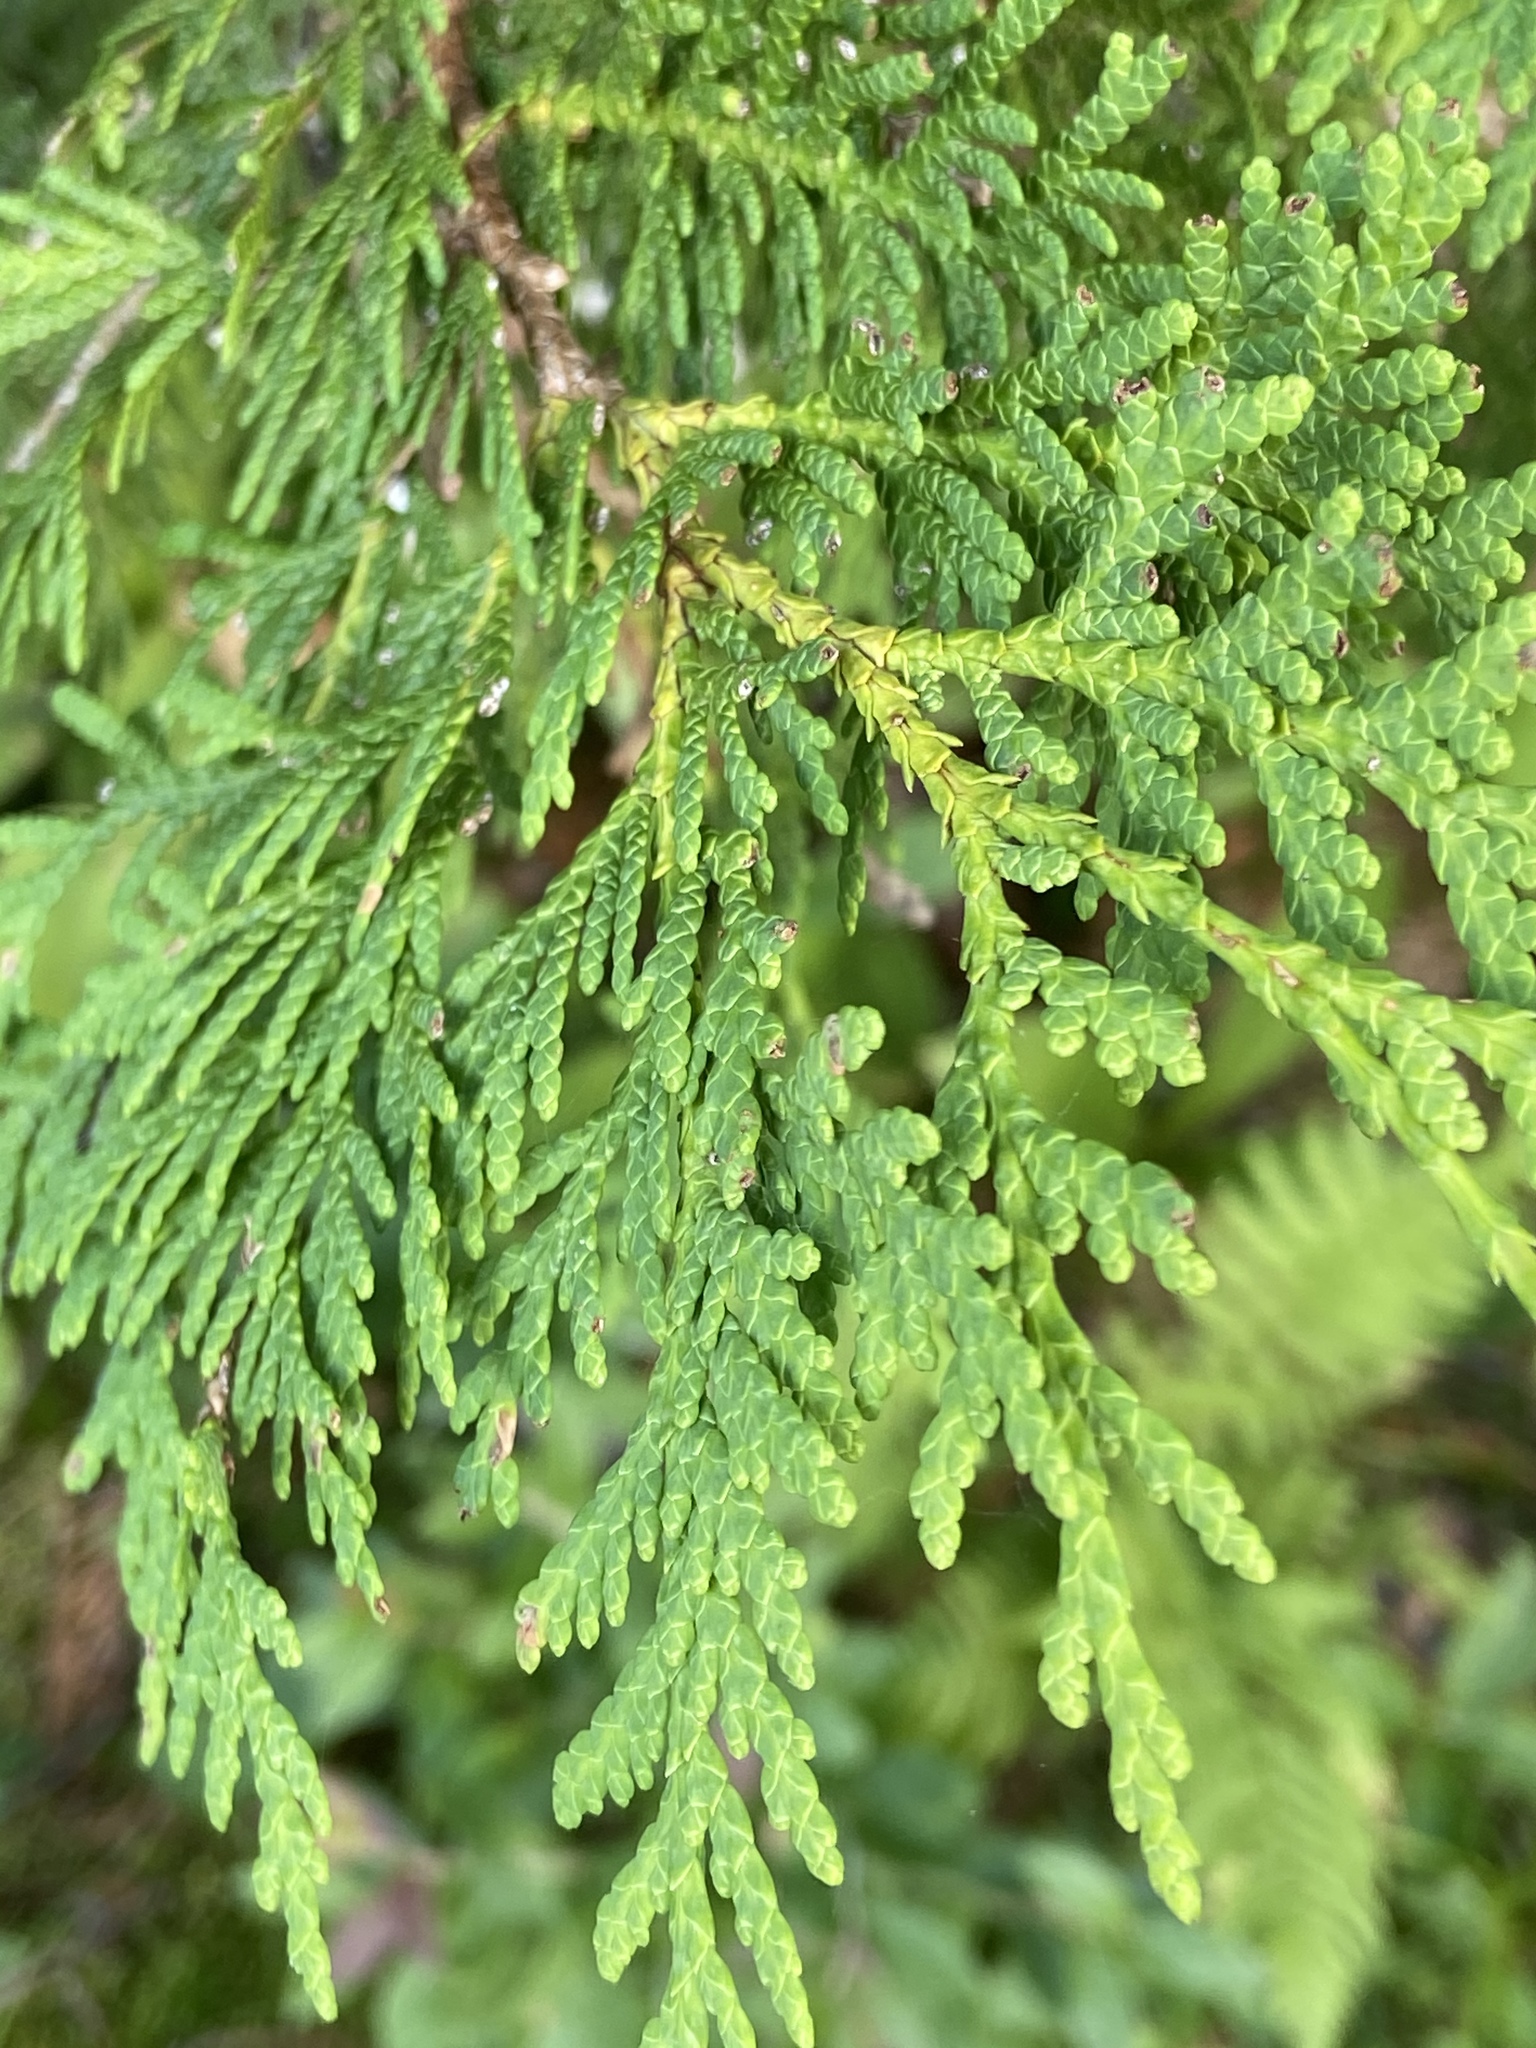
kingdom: Plantae
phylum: Tracheophyta
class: Pinopsida
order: Pinales
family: Cupressaceae
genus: Thuja
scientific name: Thuja occidentalis
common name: Northern white-cedar
